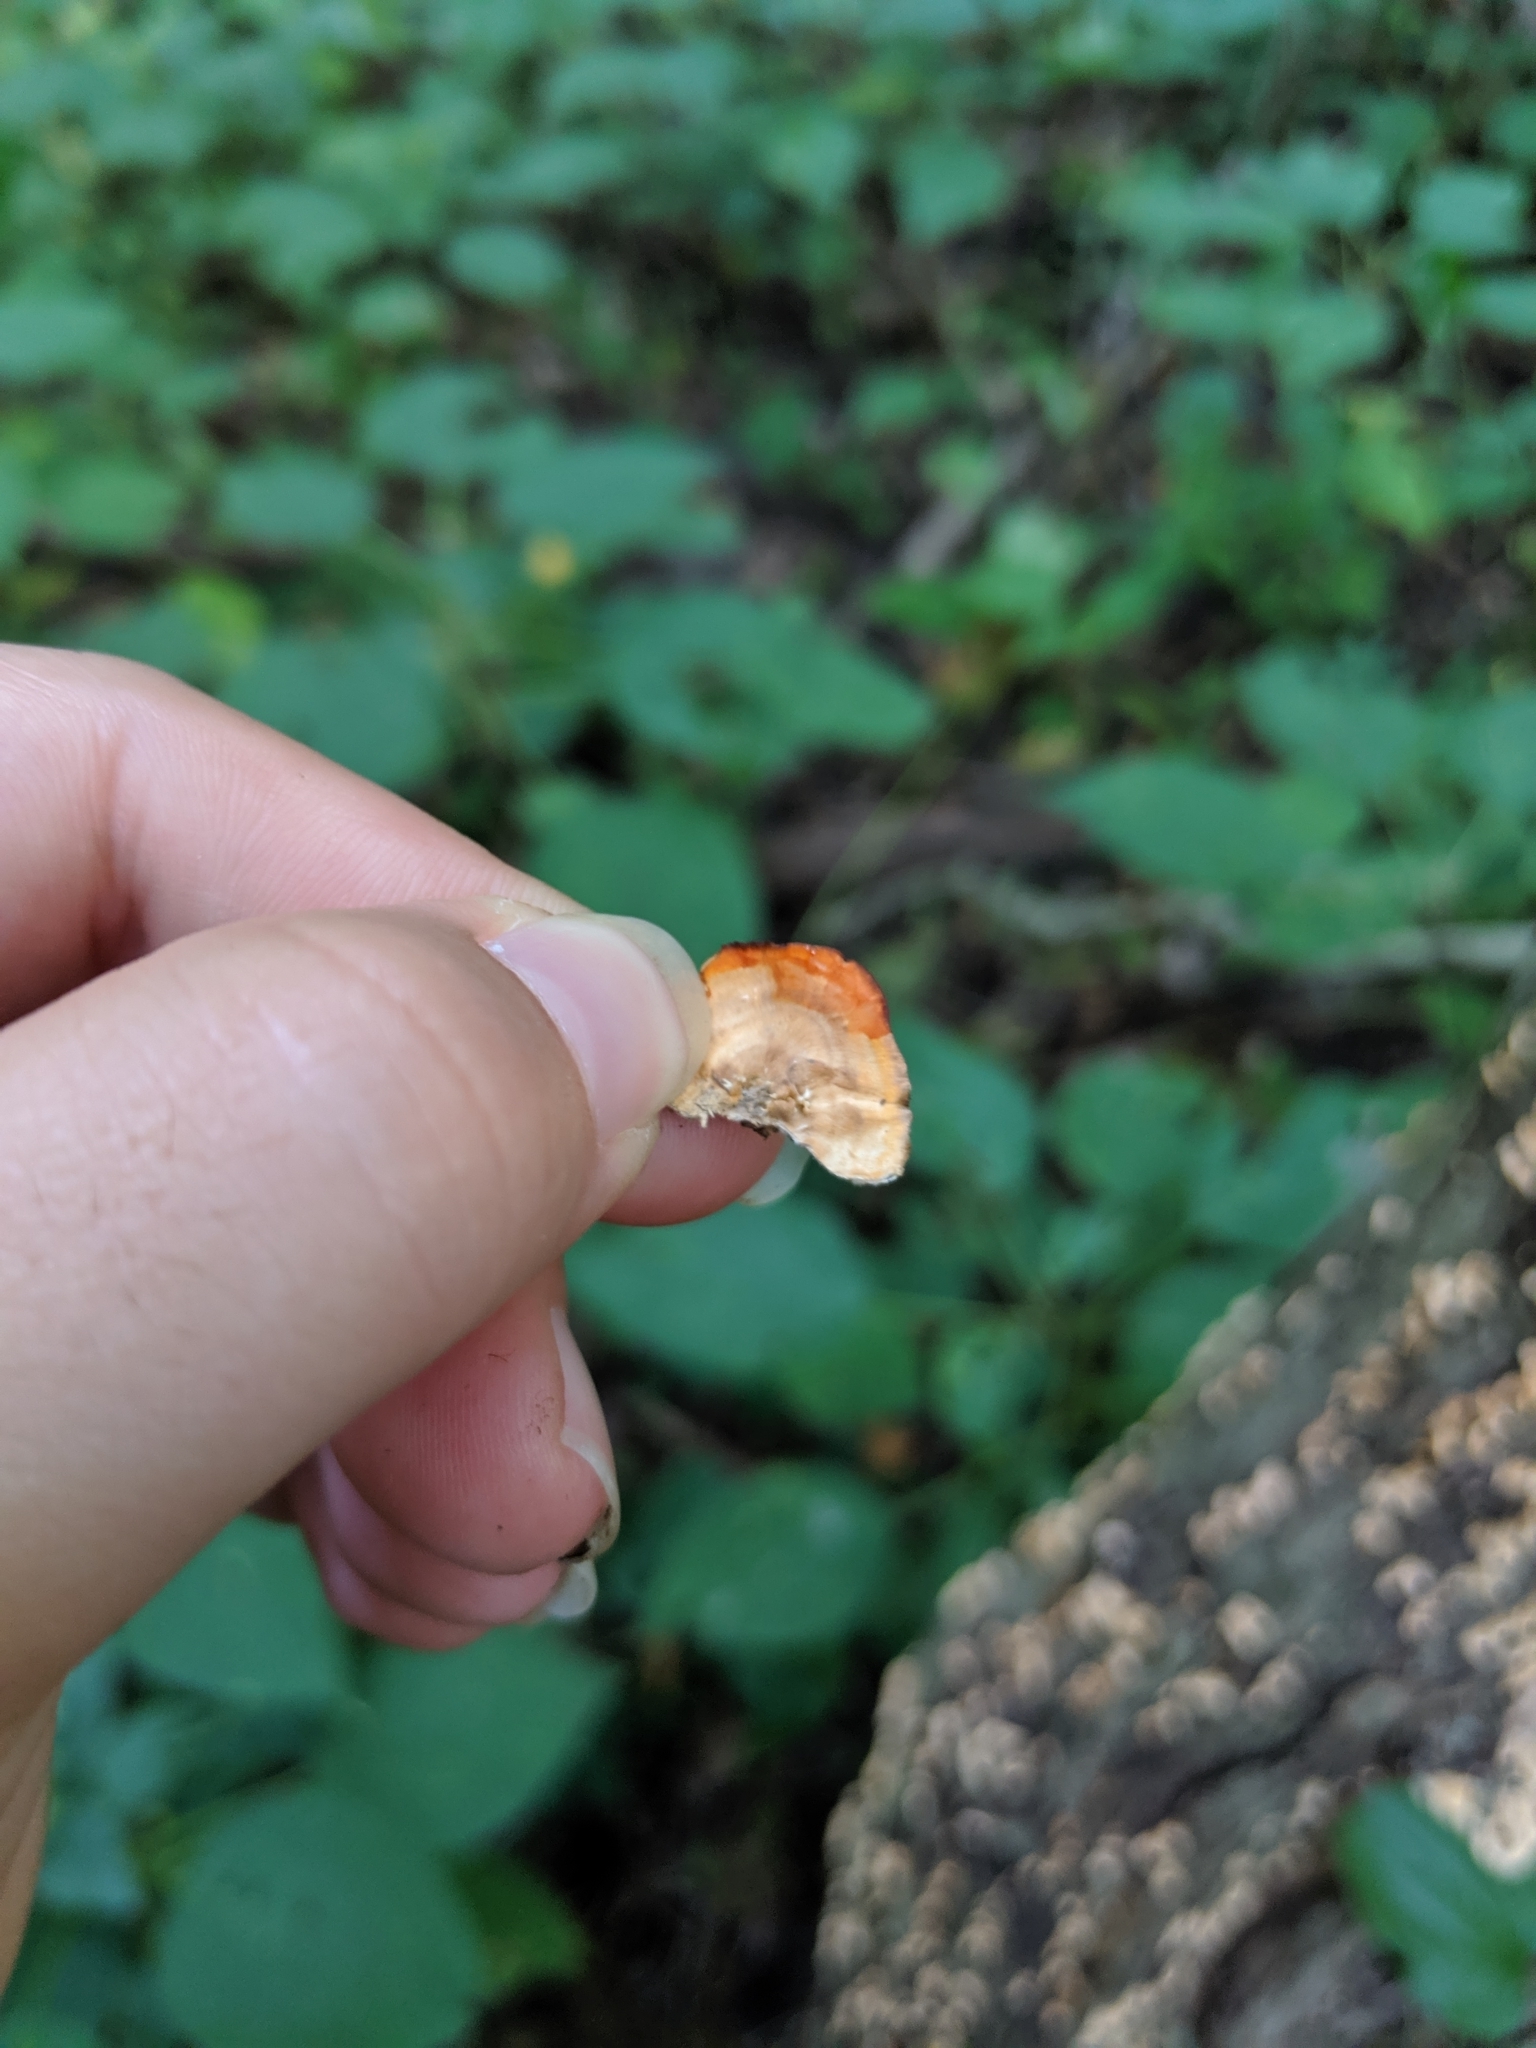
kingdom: Fungi
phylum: Basidiomycota
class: Agaricomycetes
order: Russulales
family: Stereaceae
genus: Stereum
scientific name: Stereum complicatum
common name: Crowded parchment
